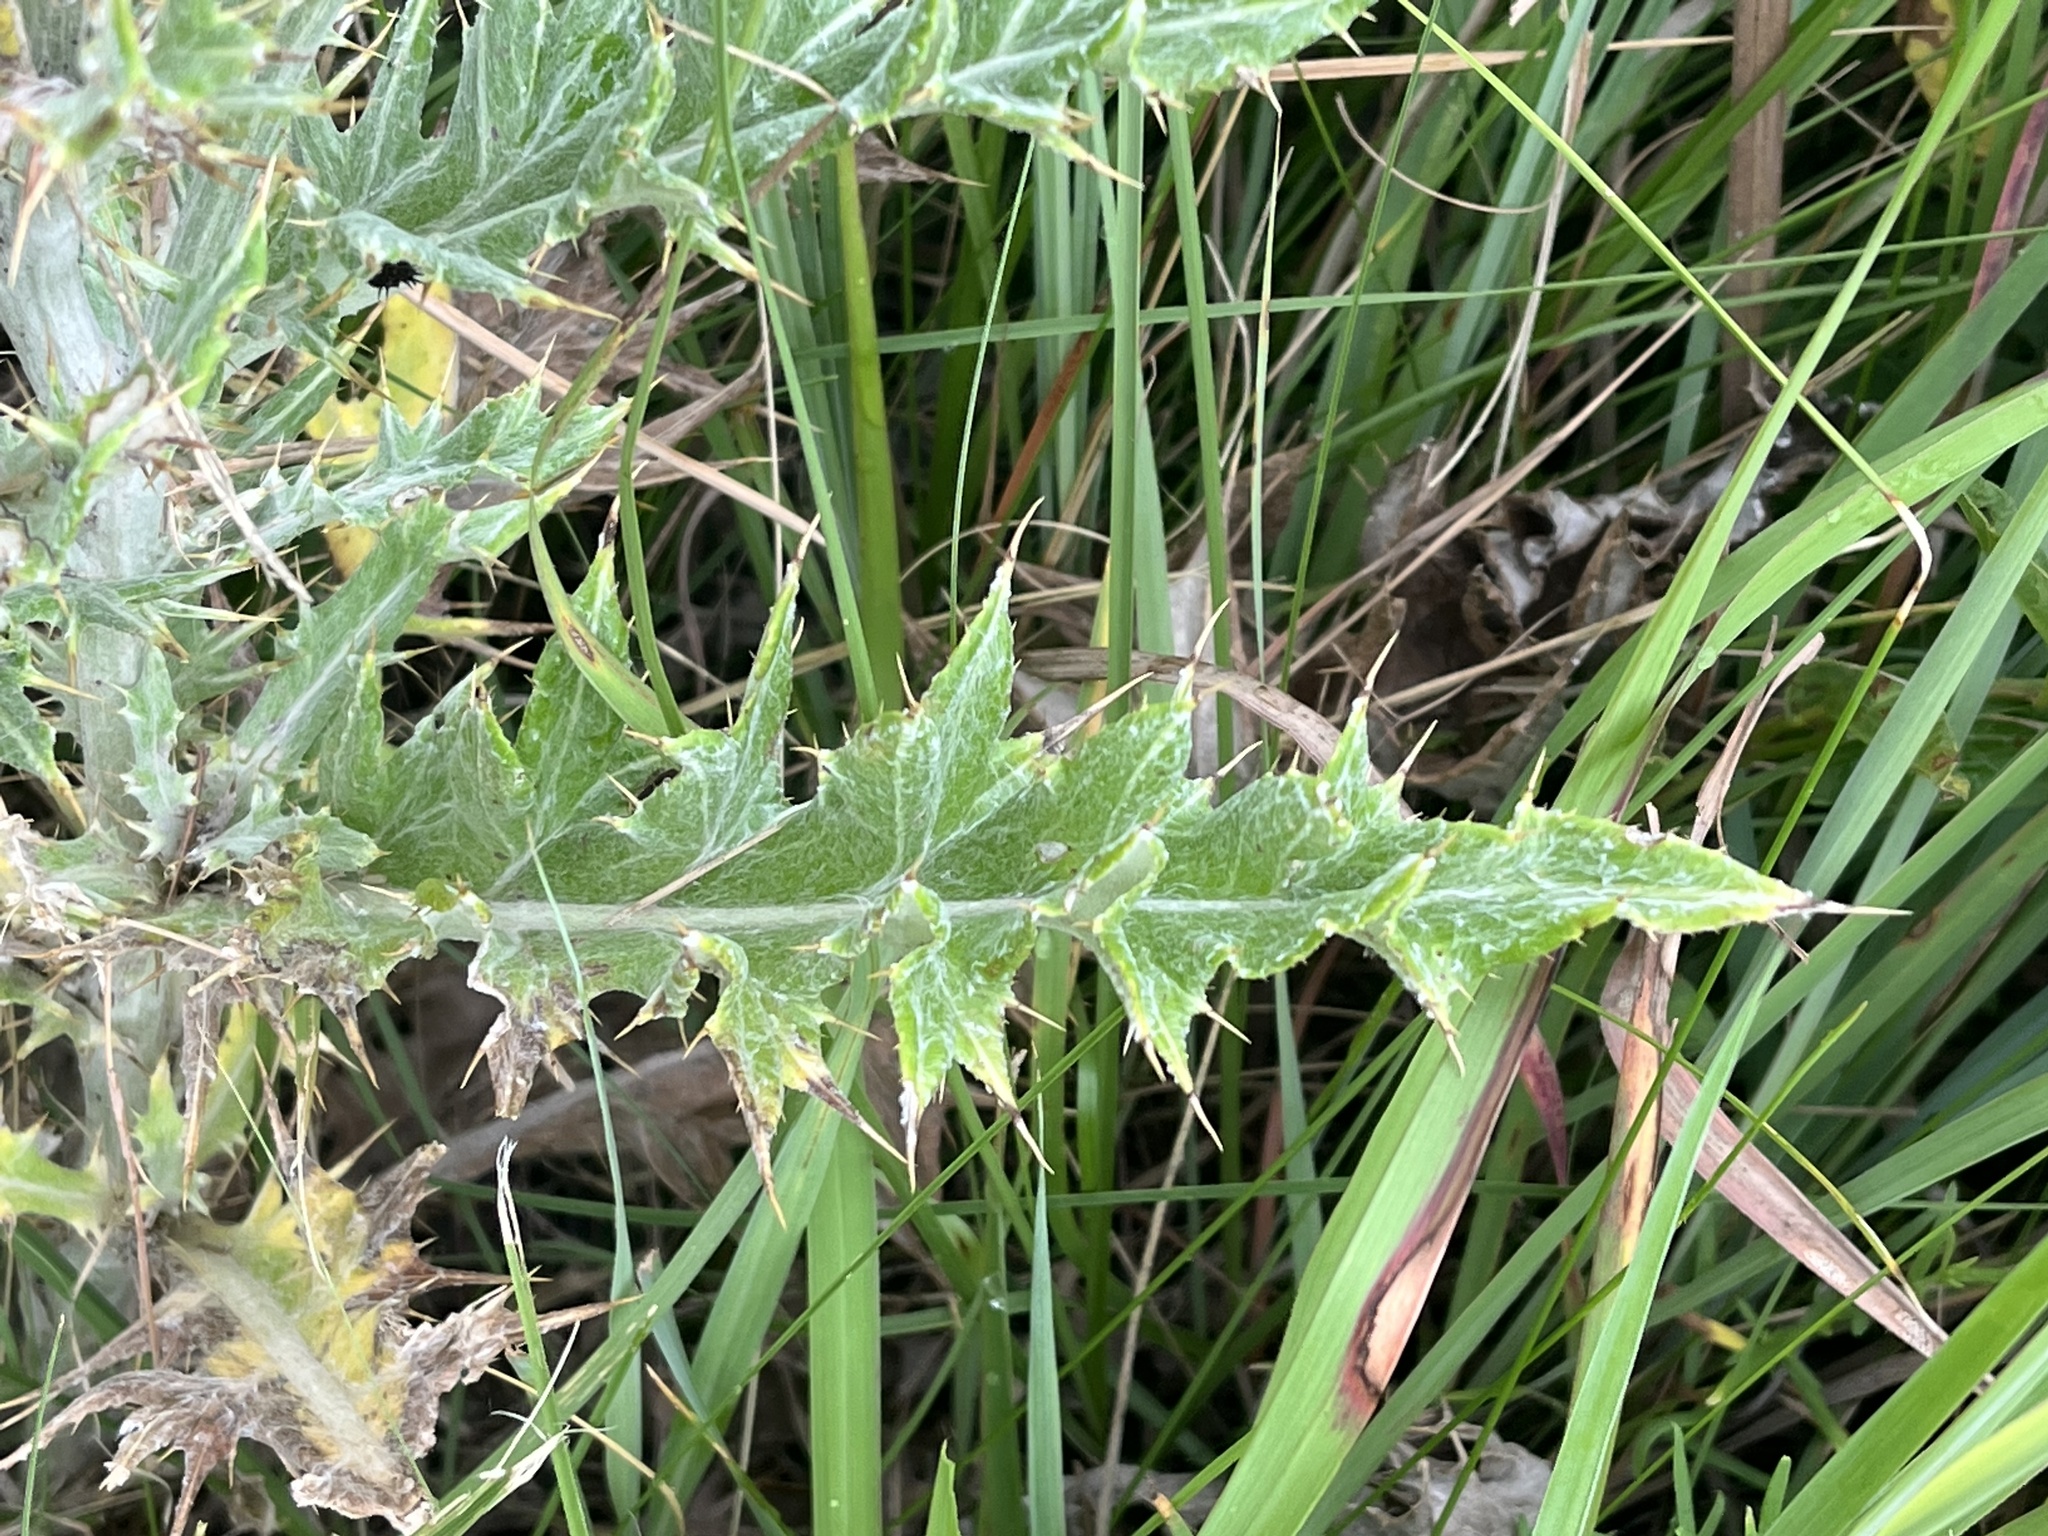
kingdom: Plantae
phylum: Tracheophyta
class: Magnoliopsida
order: Asterales
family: Asteraceae
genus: Cirsium
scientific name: Cirsium undulatum
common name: Pasture thistle
